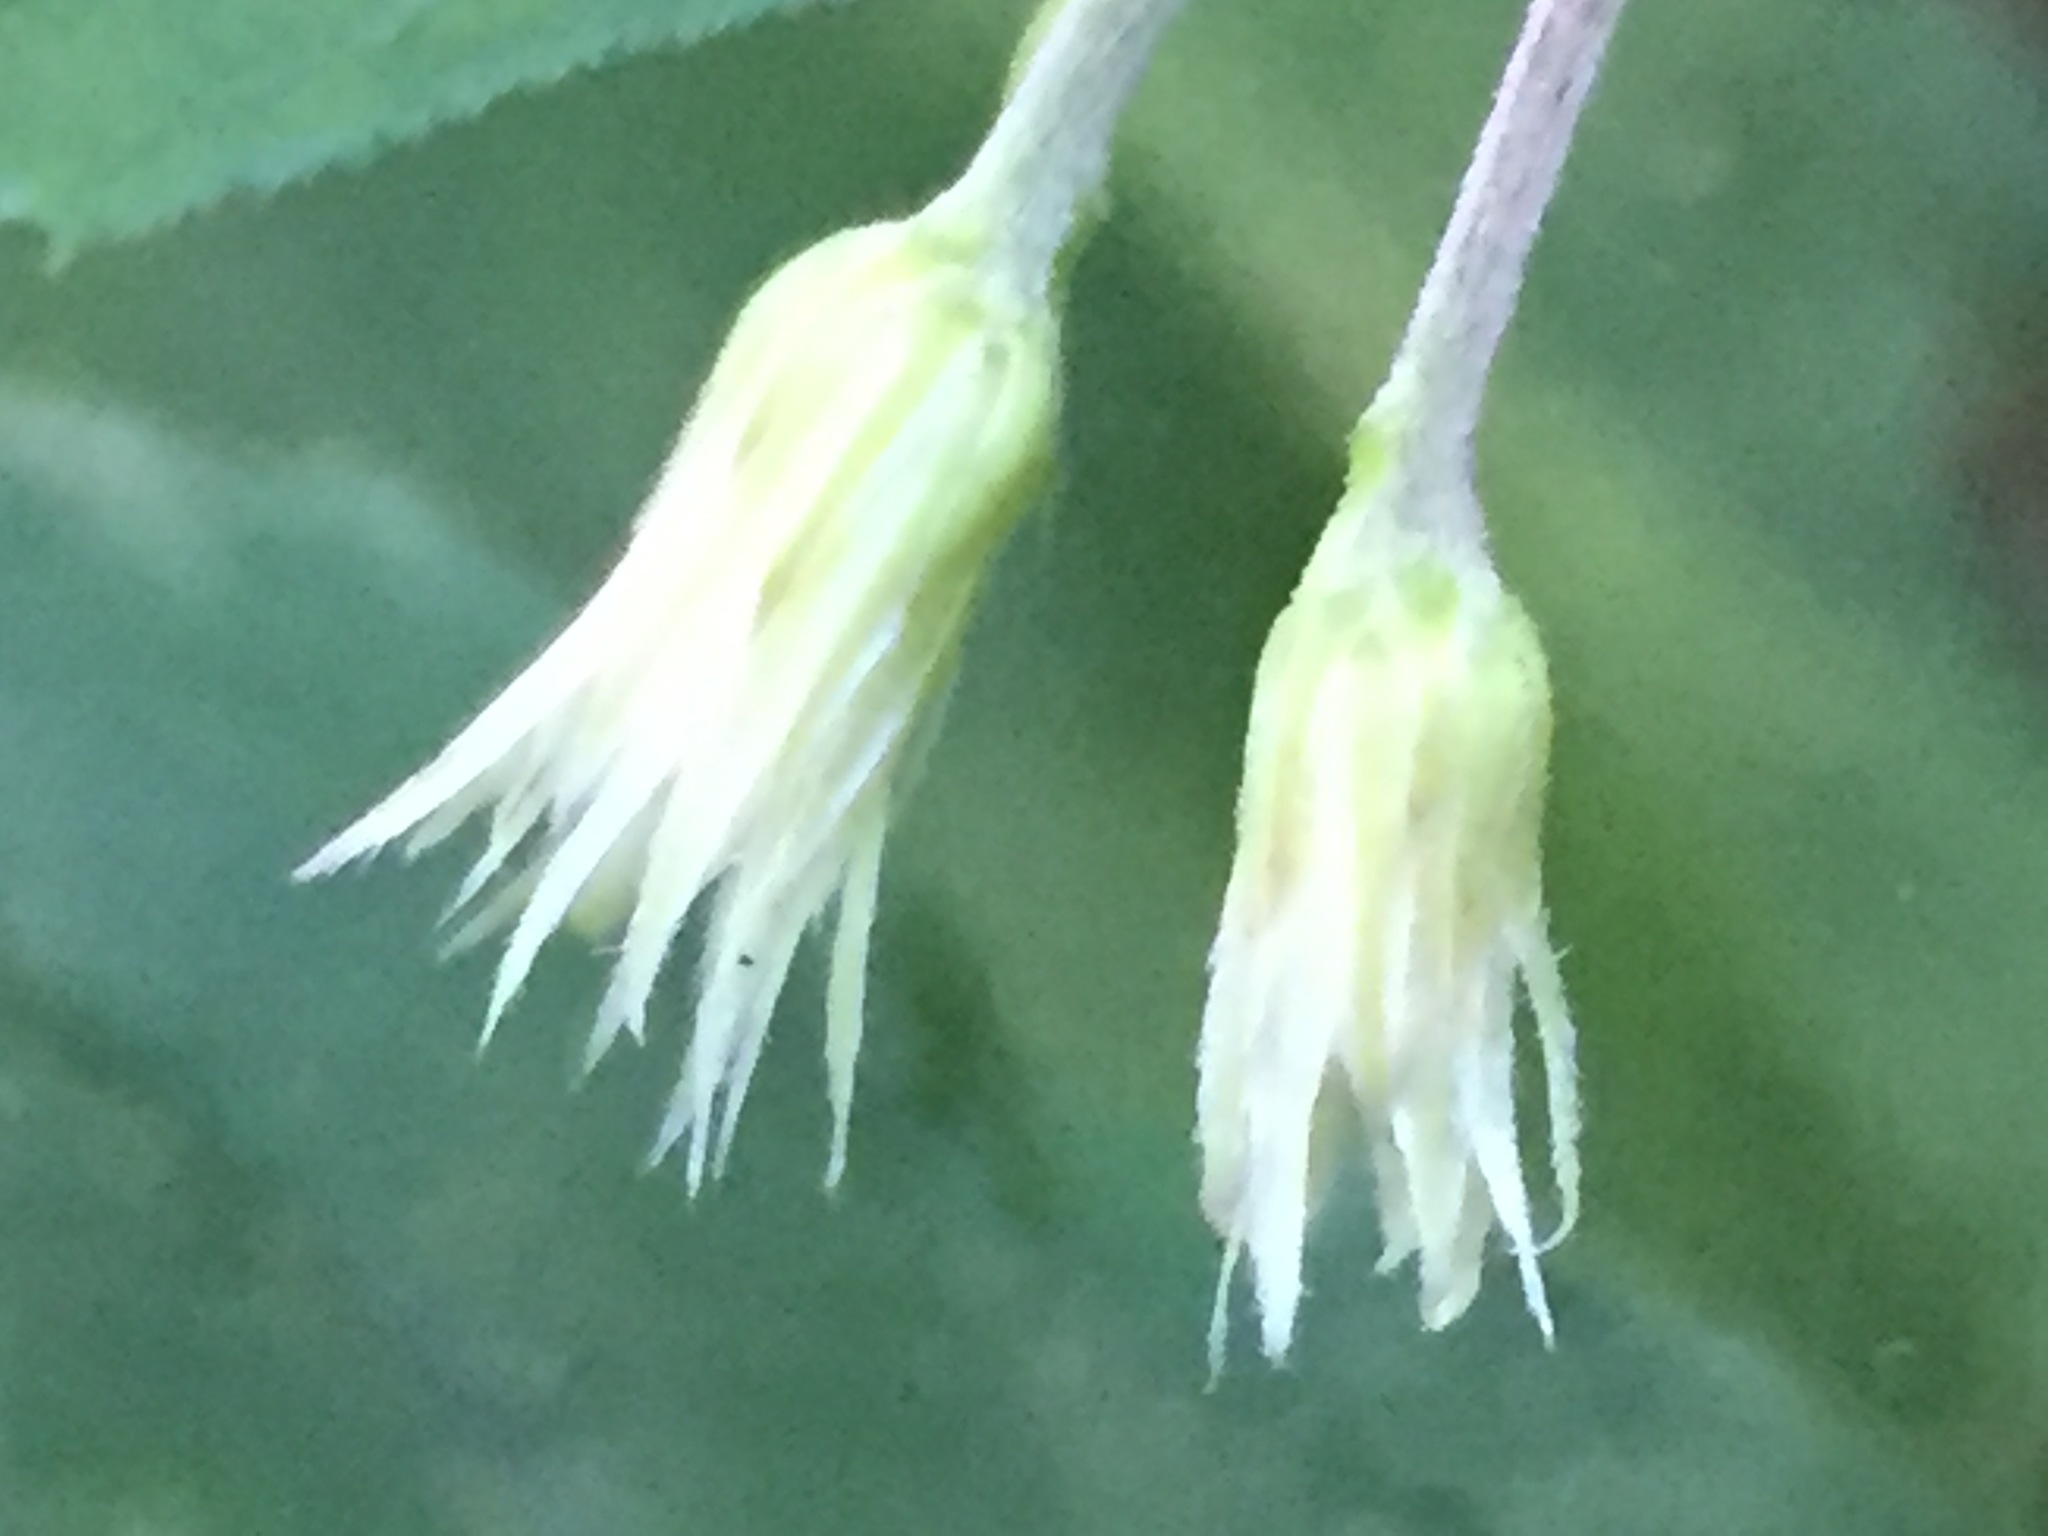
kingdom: Plantae
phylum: Tracheophyta
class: Magnoliopsida
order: Asterales
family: Asteraceae
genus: Oclemena
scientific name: Oclemena acuminata
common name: Mountain aster
